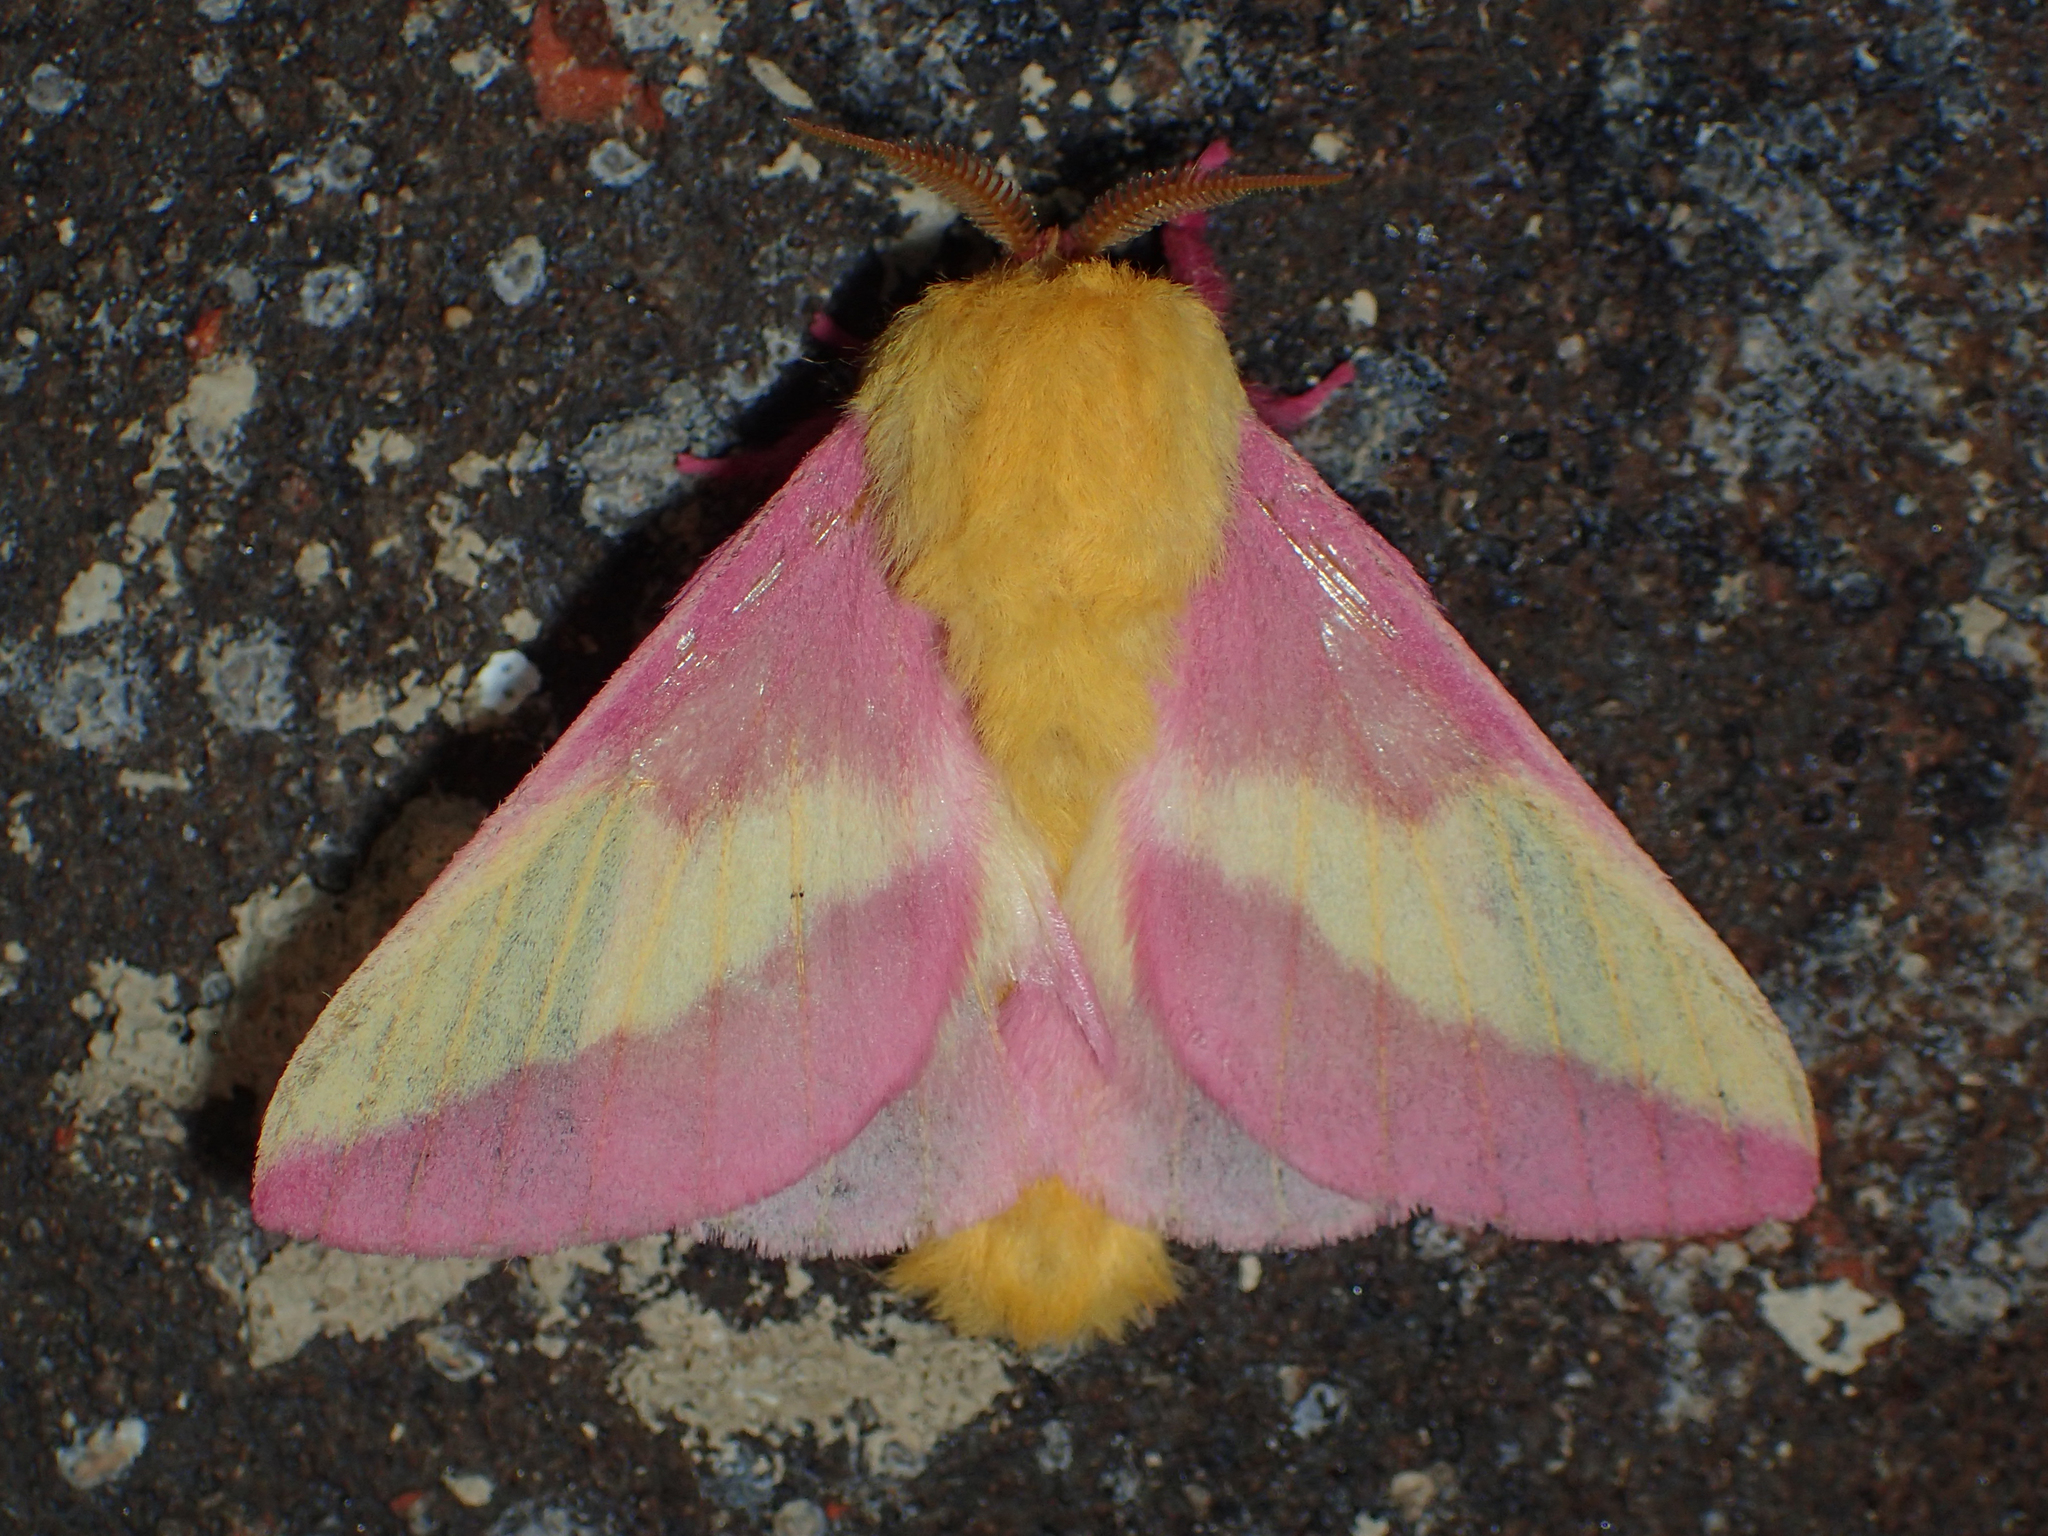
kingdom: Animalia
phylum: Arthropoda
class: Insecta
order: Lepidoptera
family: Saturniidae
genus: Dryocampa
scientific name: Dryocampa rubicunda
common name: Rosy maple moth
